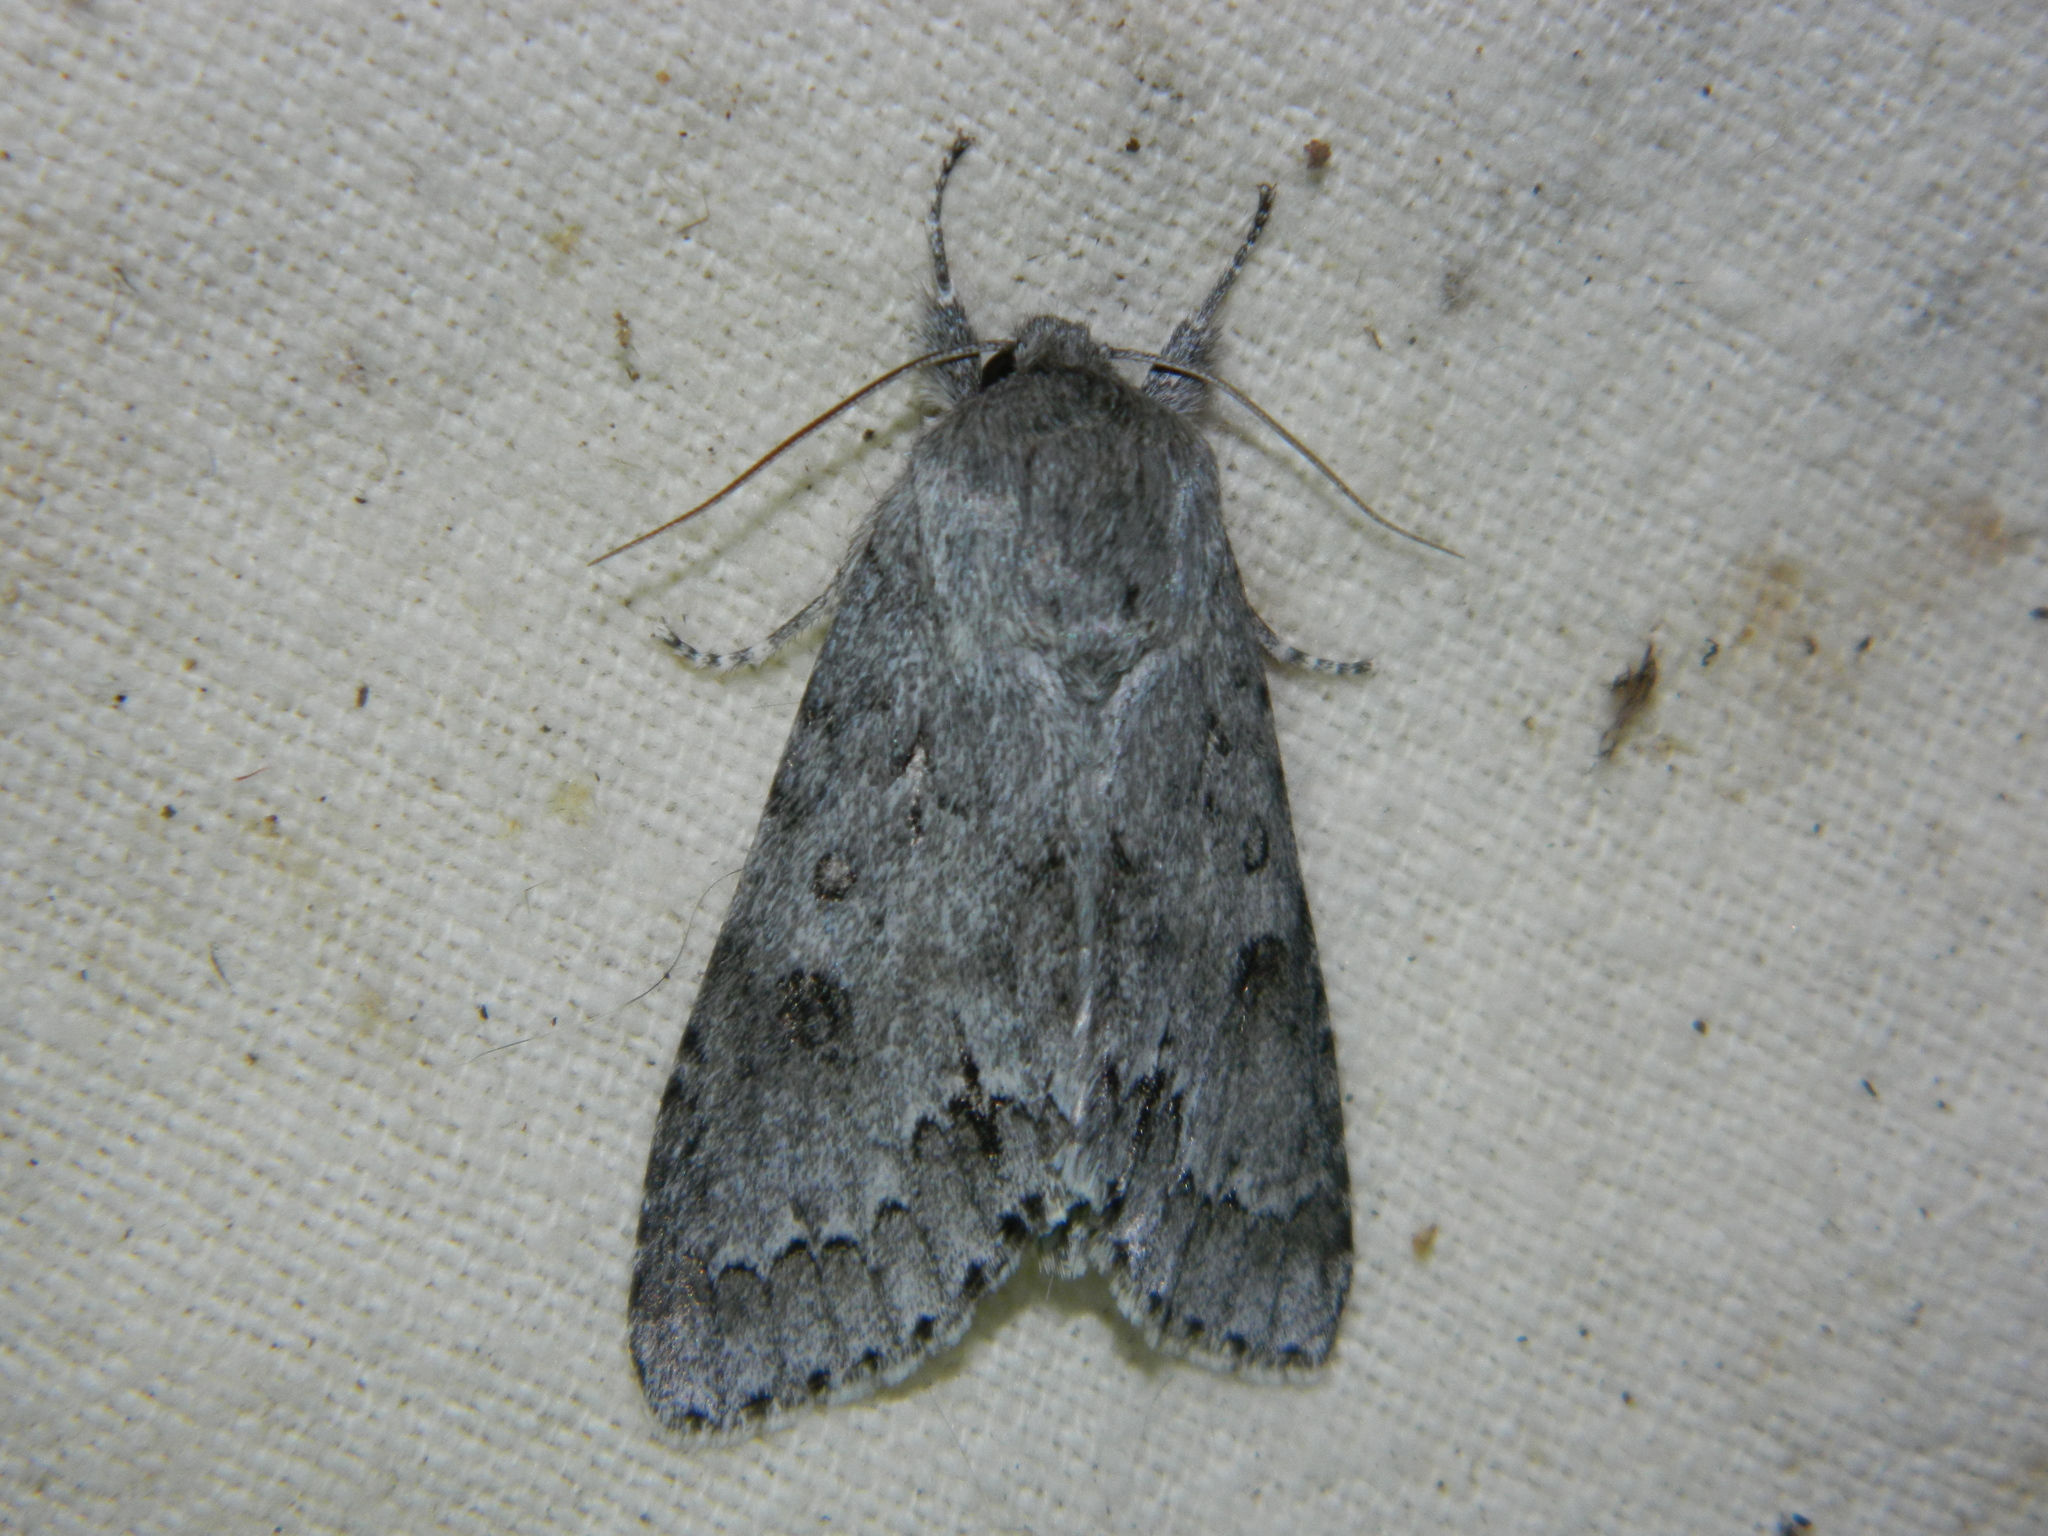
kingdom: Animalia
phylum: Arthropoda
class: Insecta
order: Lepidoptera
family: Noctuidae
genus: Acronicta
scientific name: Acronicta insita
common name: Large gray dagger
